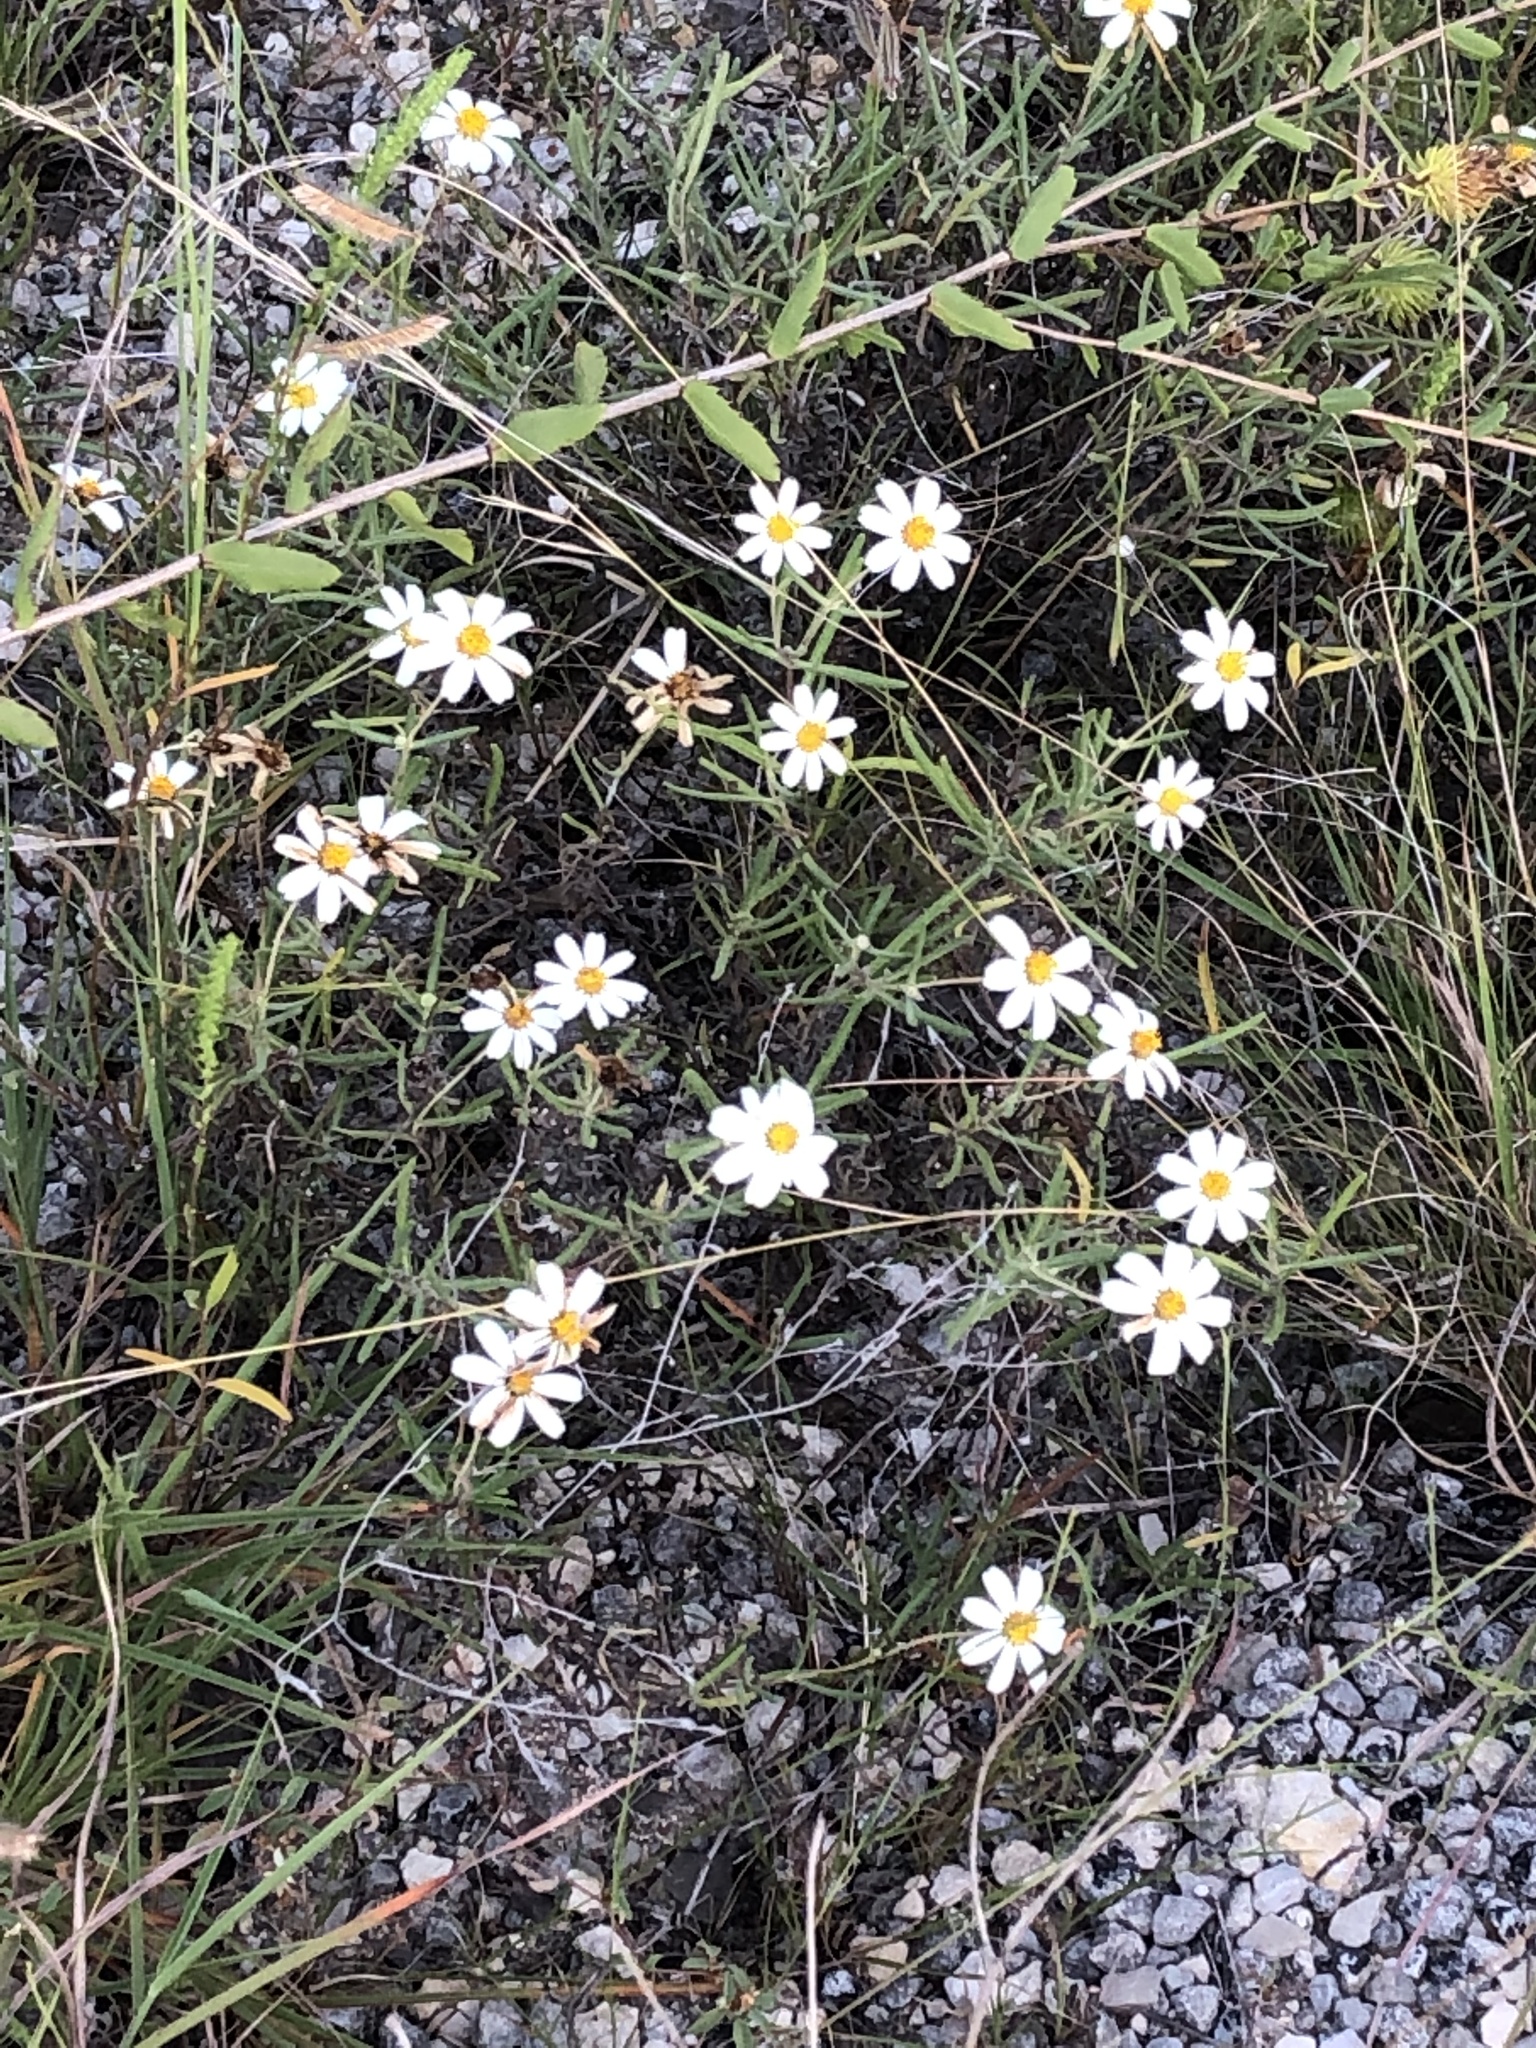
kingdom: Plantae
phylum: Tracheophyta
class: Magnoliopsida
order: Asterales
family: Asteraceae
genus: Melampodium
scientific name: Melampodium leucanthum
